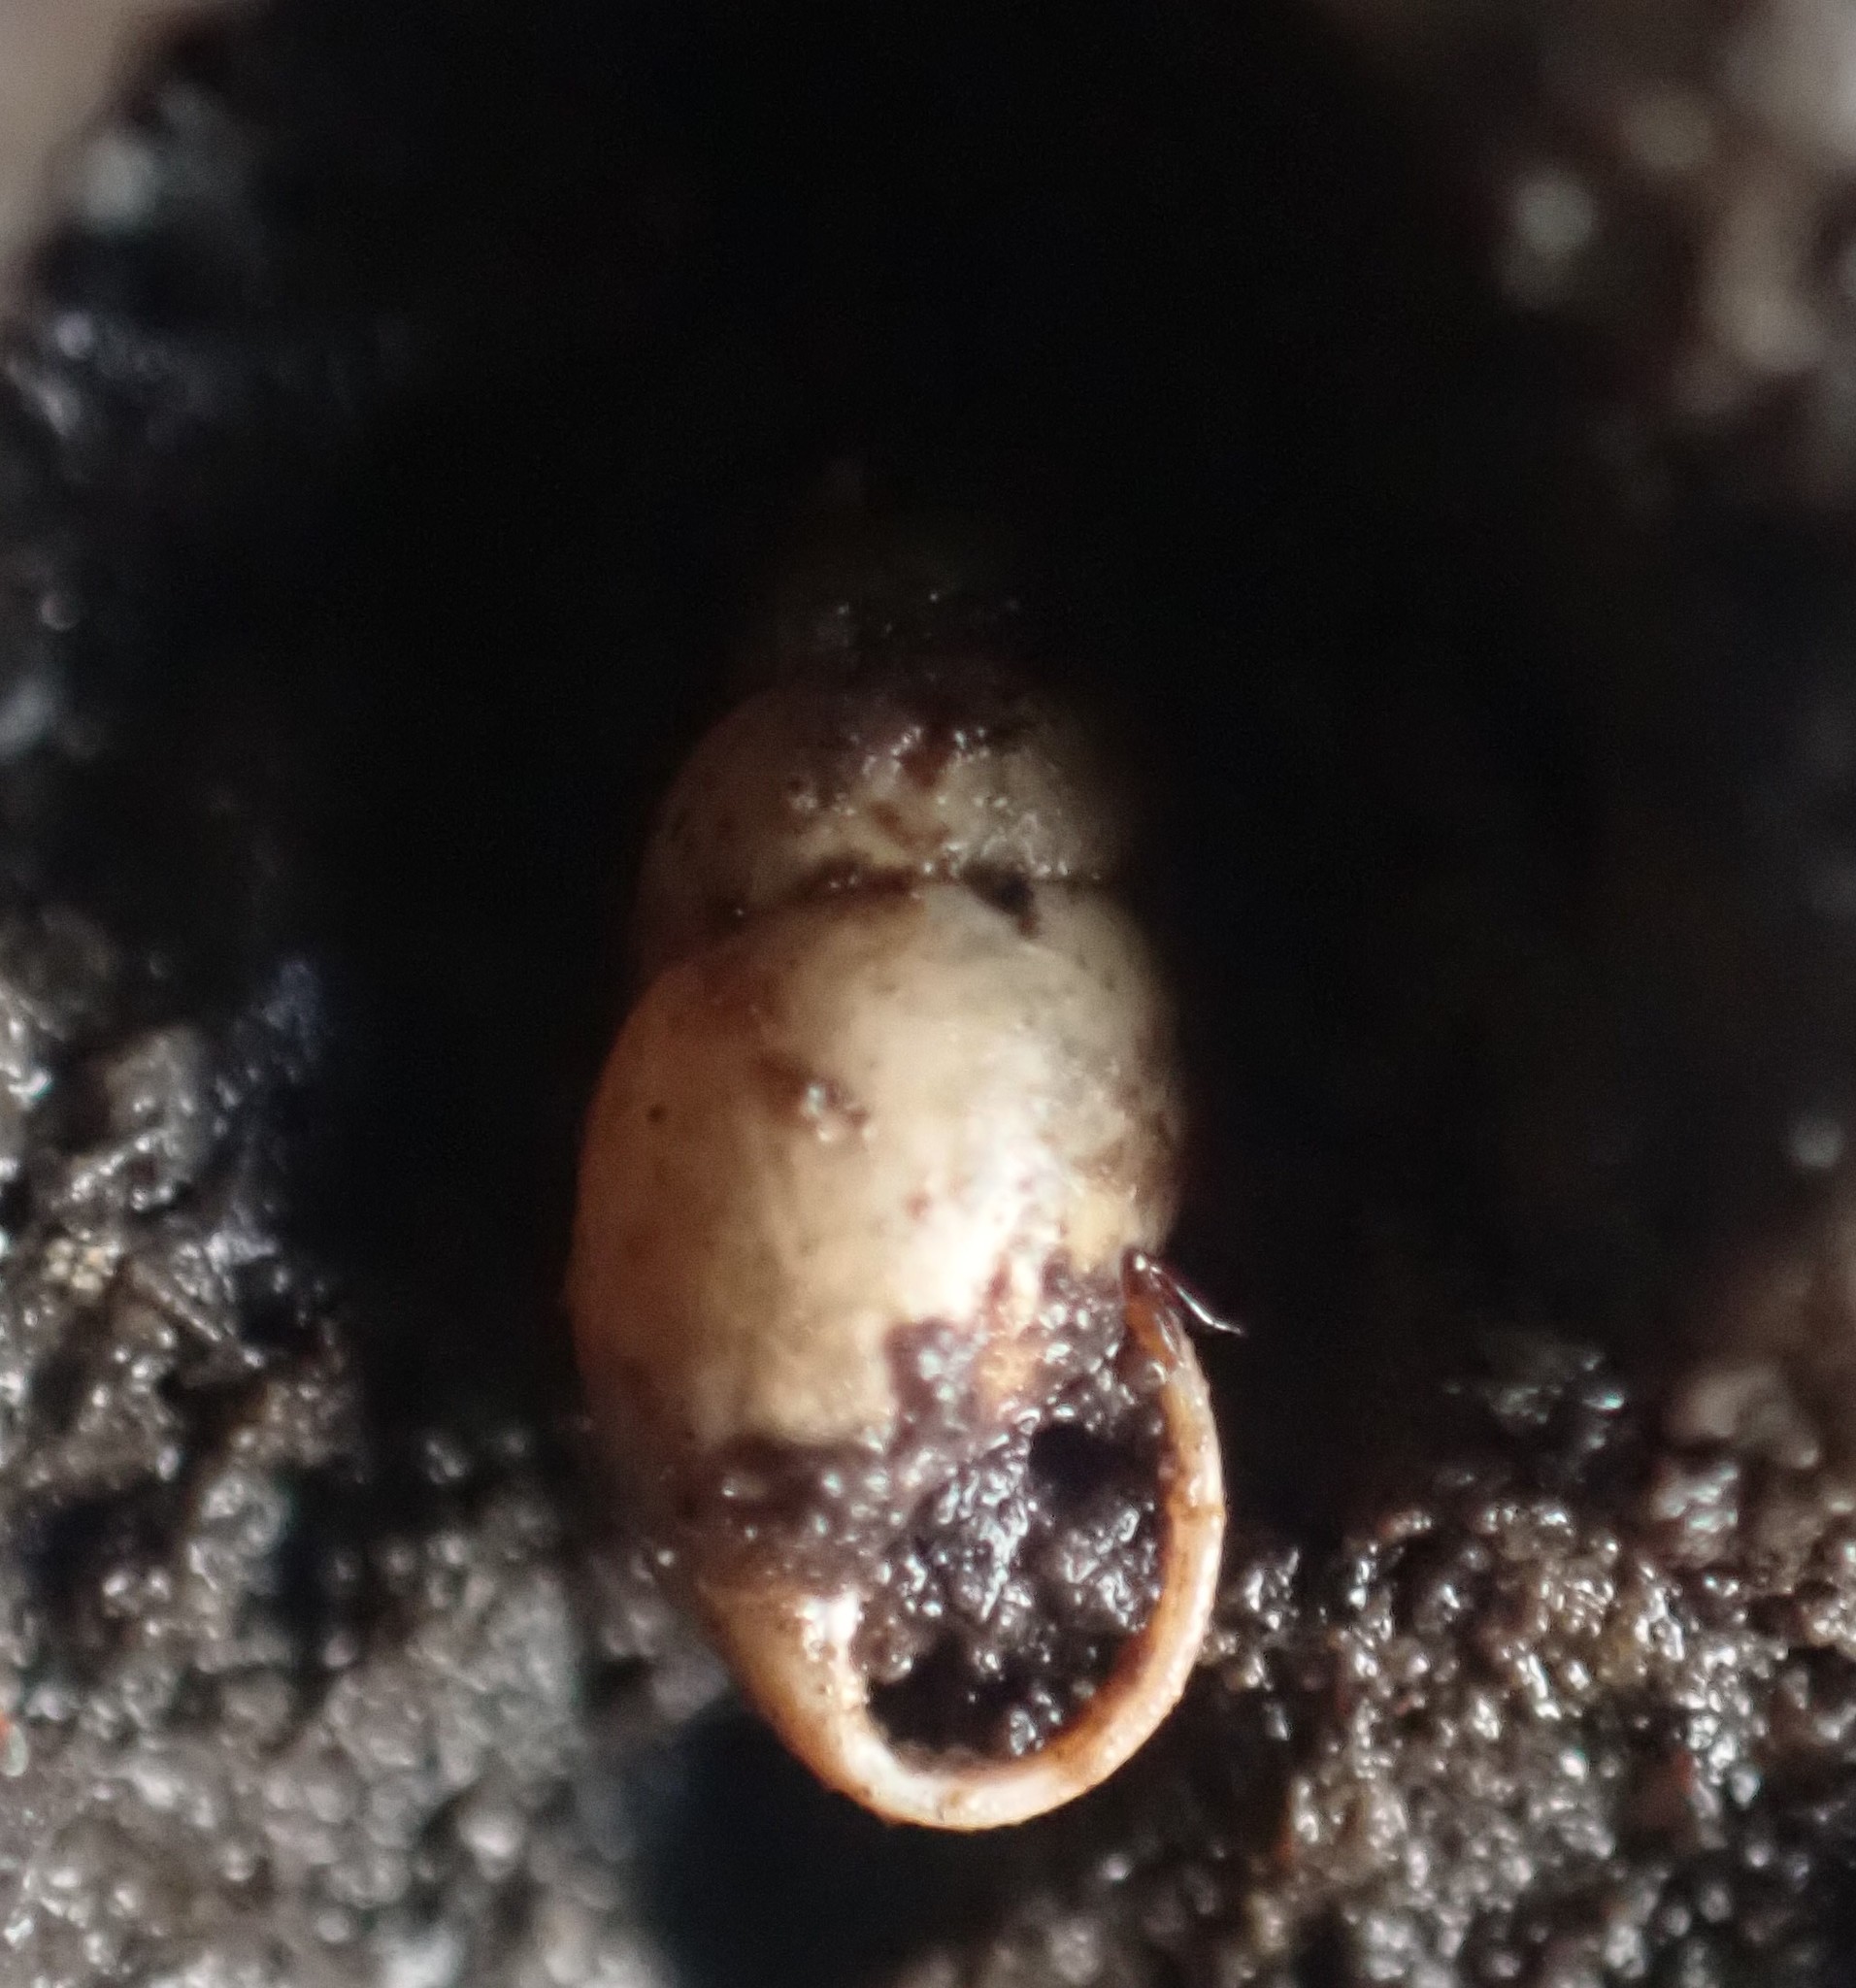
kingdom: Animalia
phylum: Mollusca
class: Gastropoda
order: Stylommatophora
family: Cochlicopidae
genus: Cochlicopa
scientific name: Cochlicopa lubrica
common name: Glossy pillar snail
